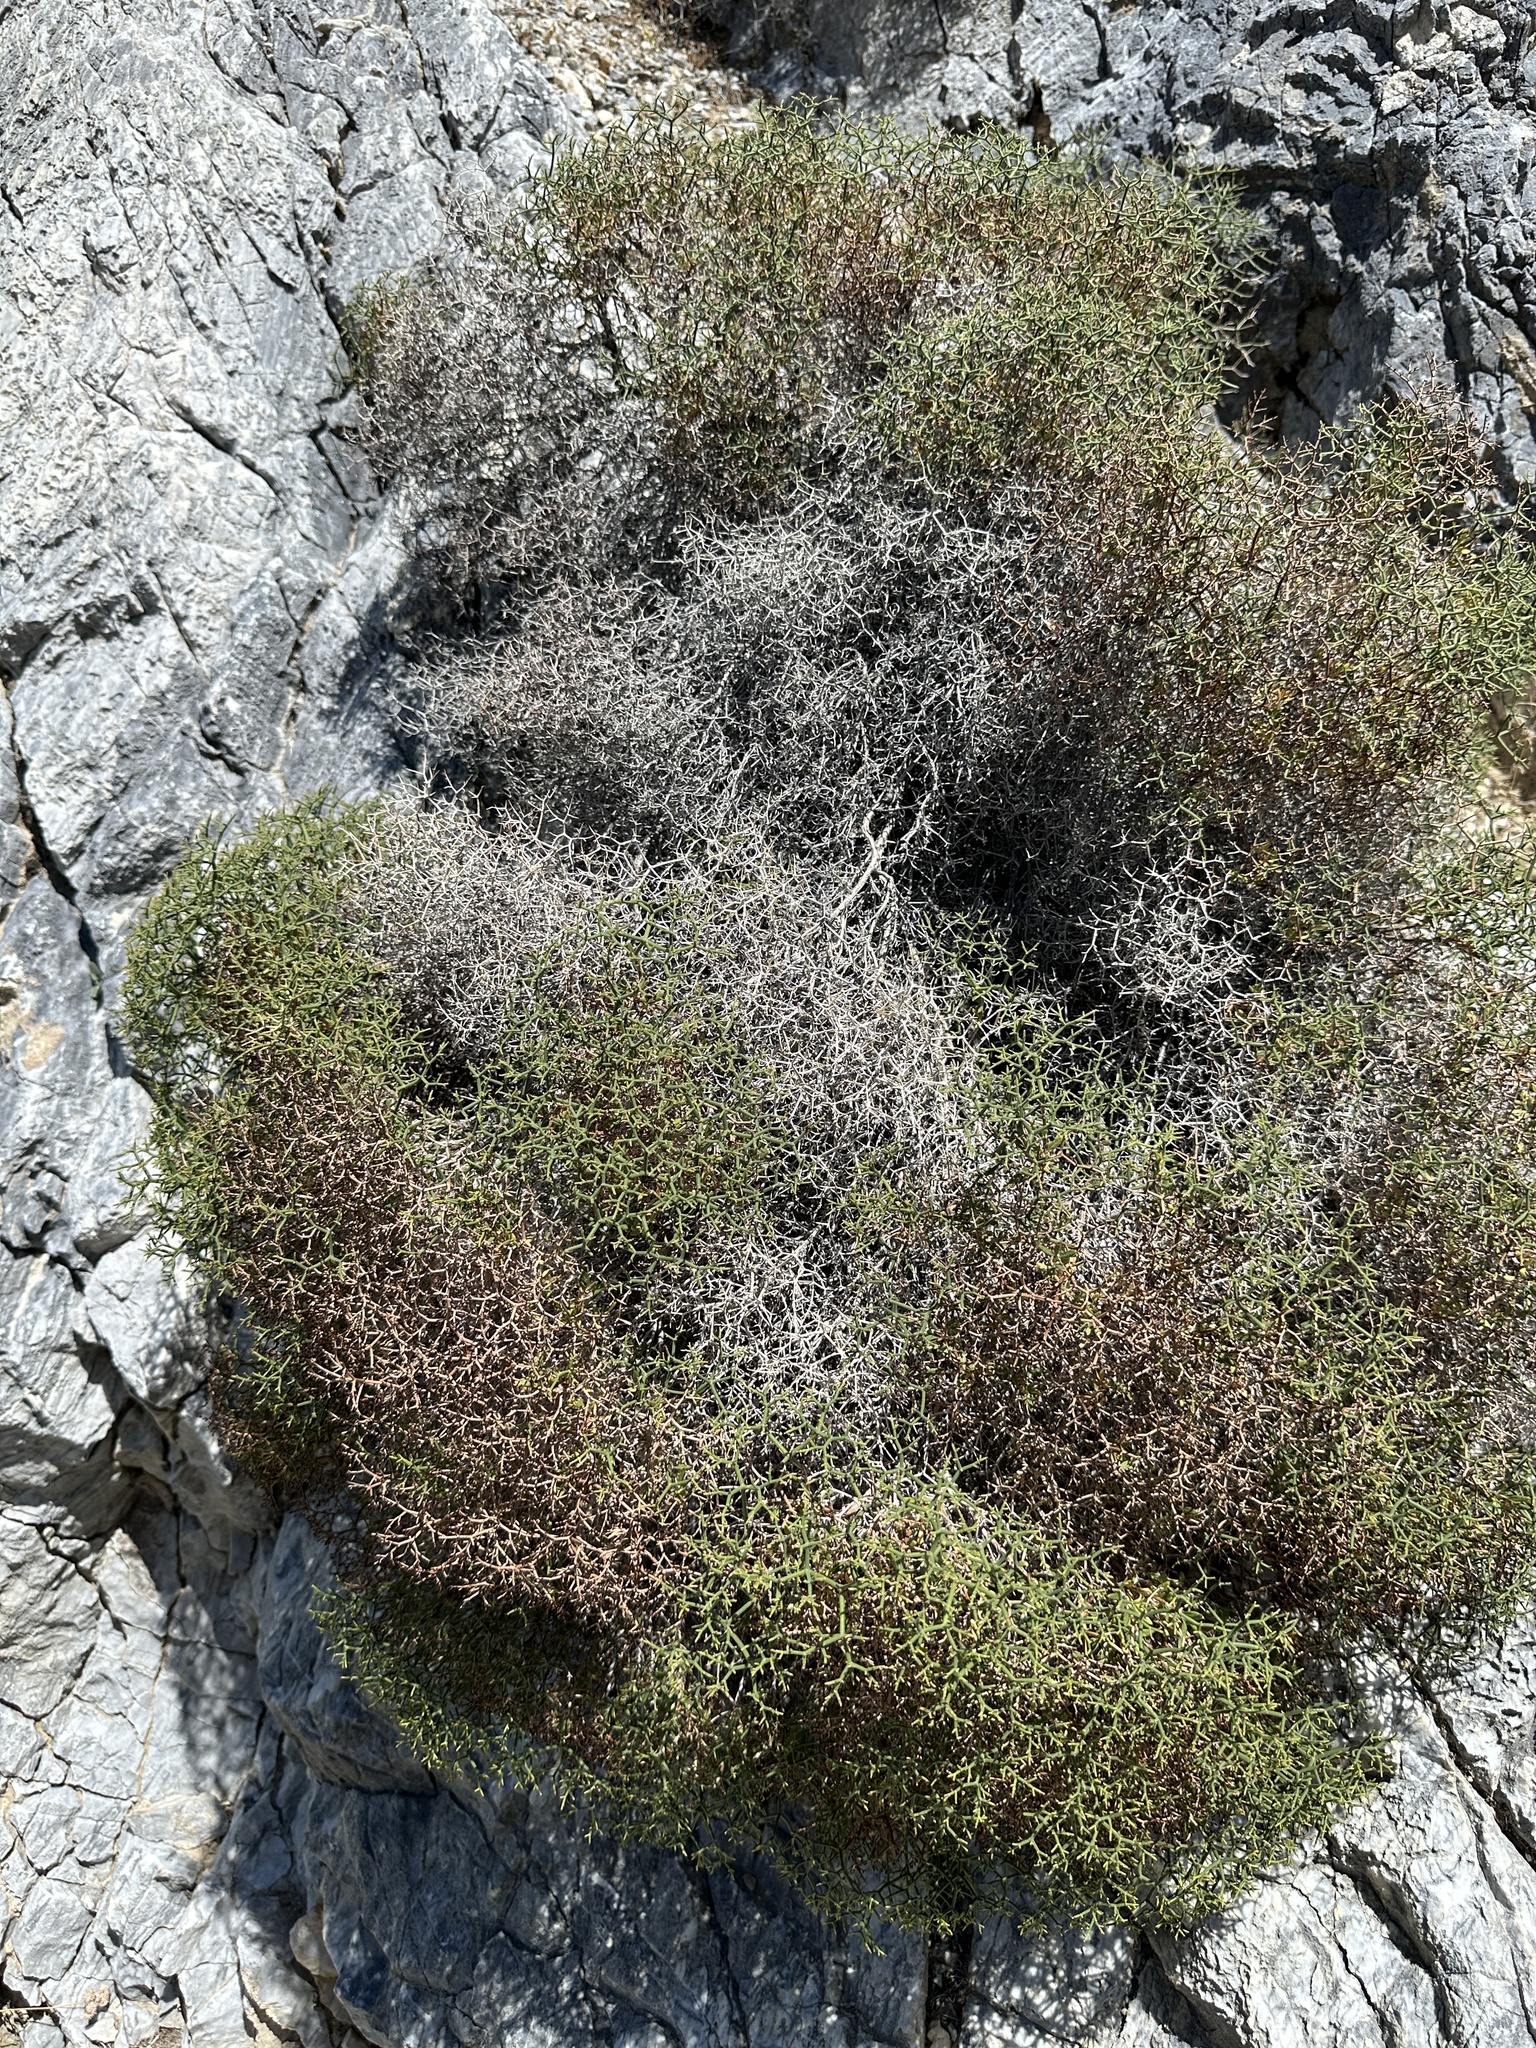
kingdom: Plantae
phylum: Tracheophyta
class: Magnoliopsida
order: Caryophyllales
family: Polygonaceae
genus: Eriogonum
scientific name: Eriogonum heermannii
